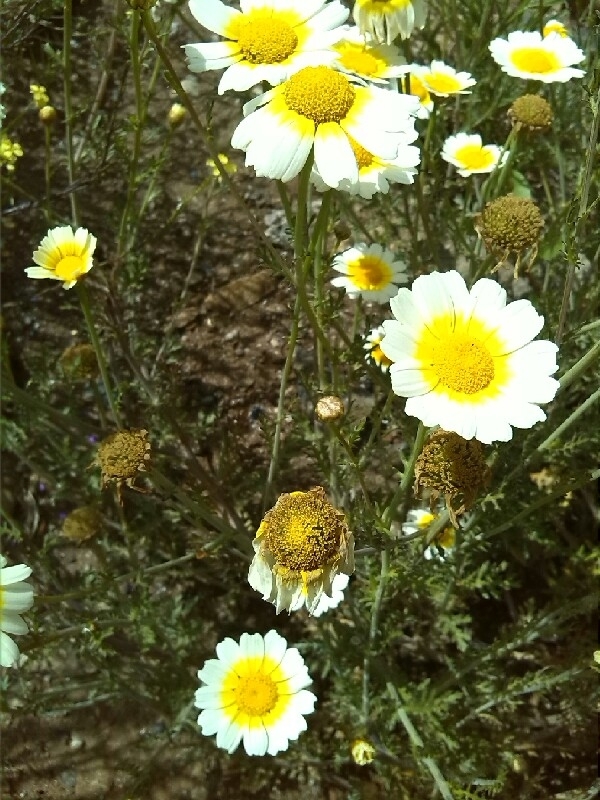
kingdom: Plantae
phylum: Tracheophyta
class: Magnoliopsida
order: Asterales
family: Asteraceae
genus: Glebionis
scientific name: Glebionis coronaria
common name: Crowndaisy
